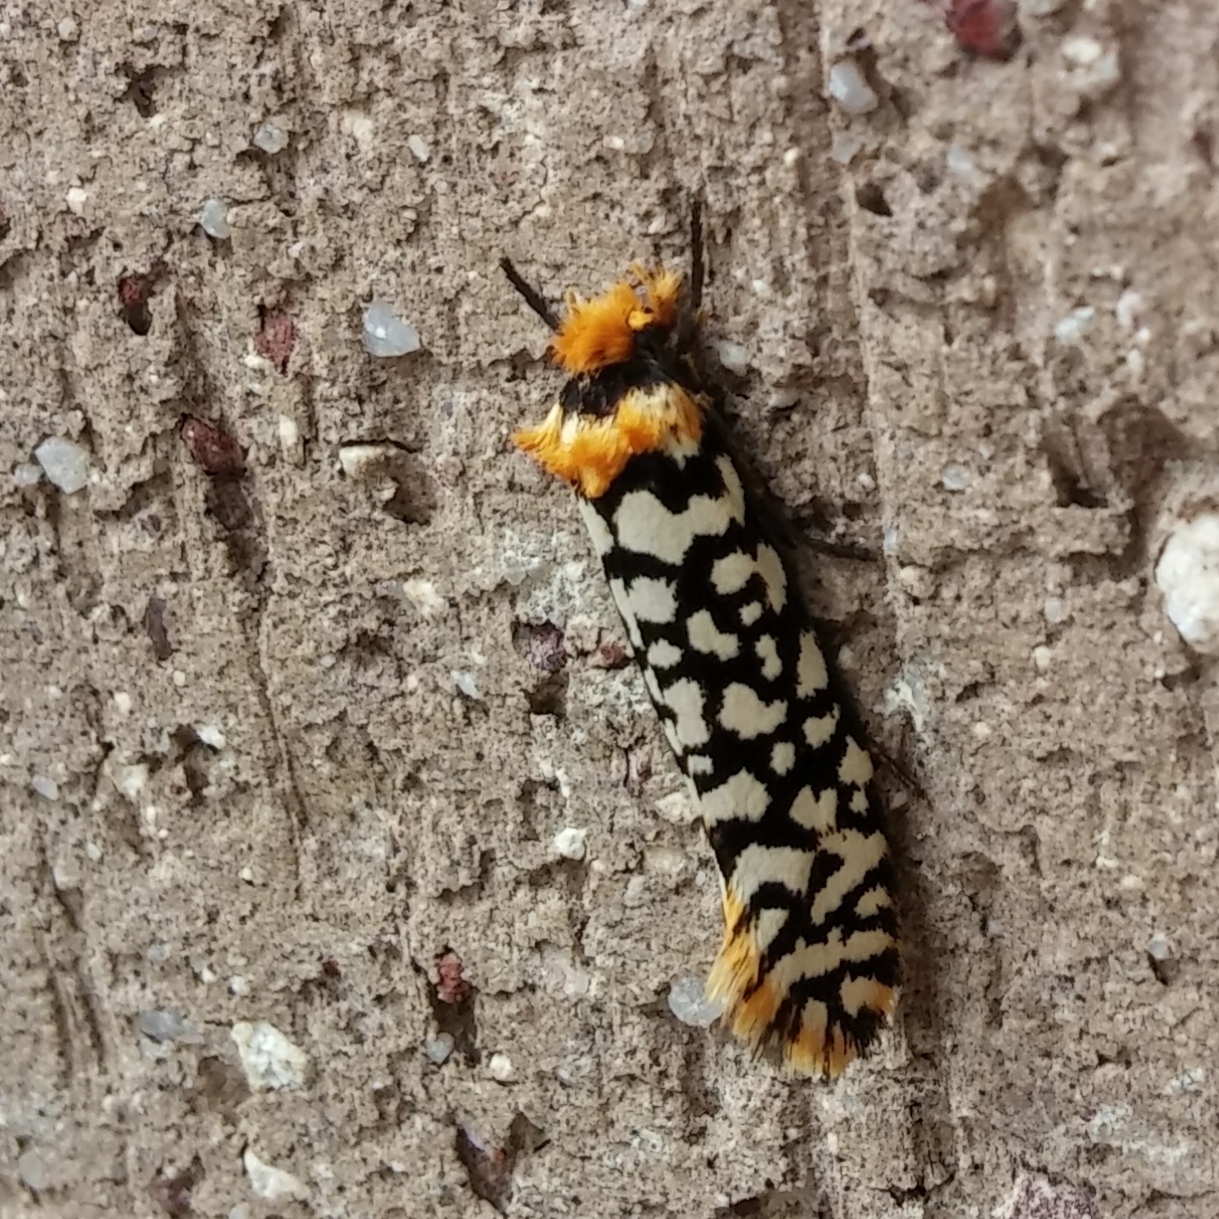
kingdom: Animalia
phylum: Arthropoda
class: Insecta
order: Lepidoptera
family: Tineidae
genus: Moerarchis
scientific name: Moerarchis clathrata
